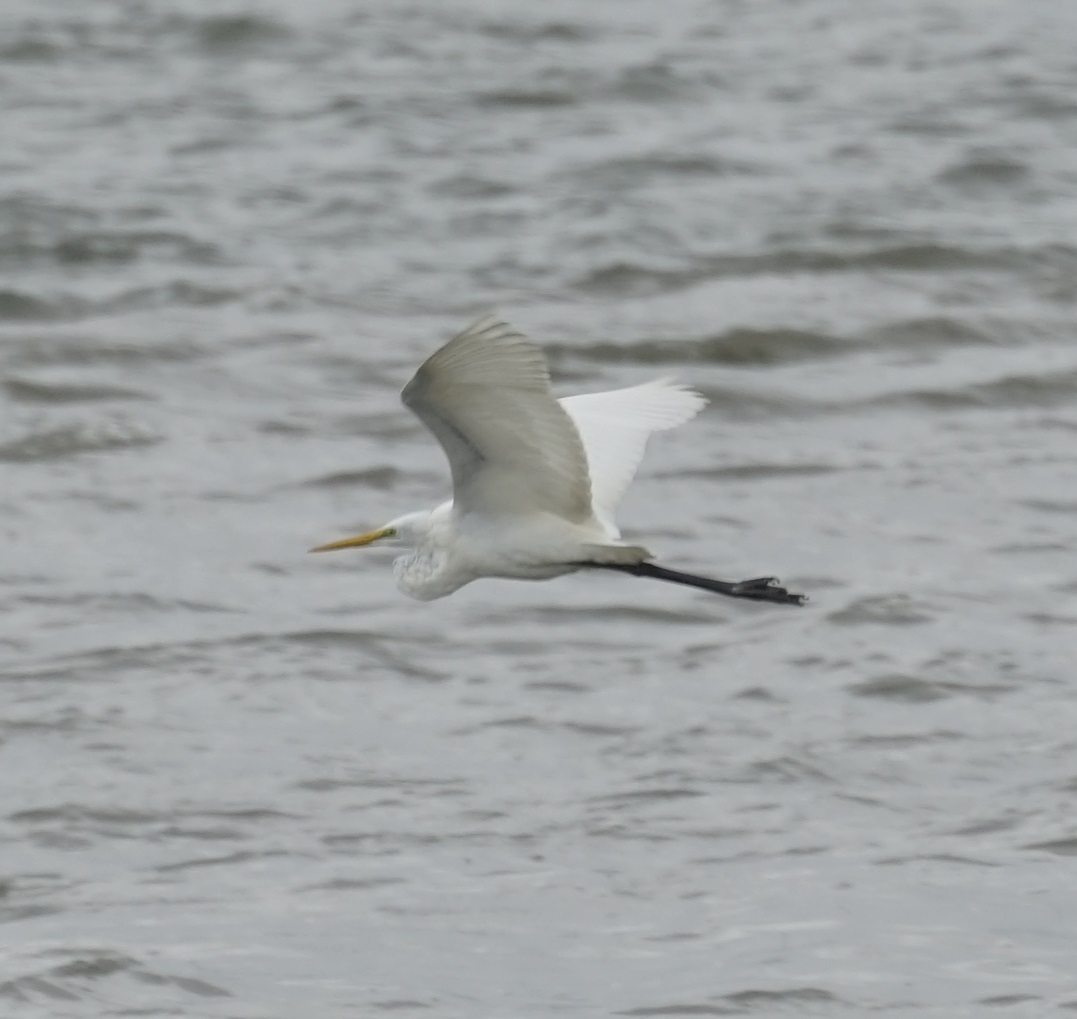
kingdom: Animalia
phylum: Chordata
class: Aves
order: Pelecaniformes
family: Ardeidae
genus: Ardea
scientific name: Ardea alba
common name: Great egret
